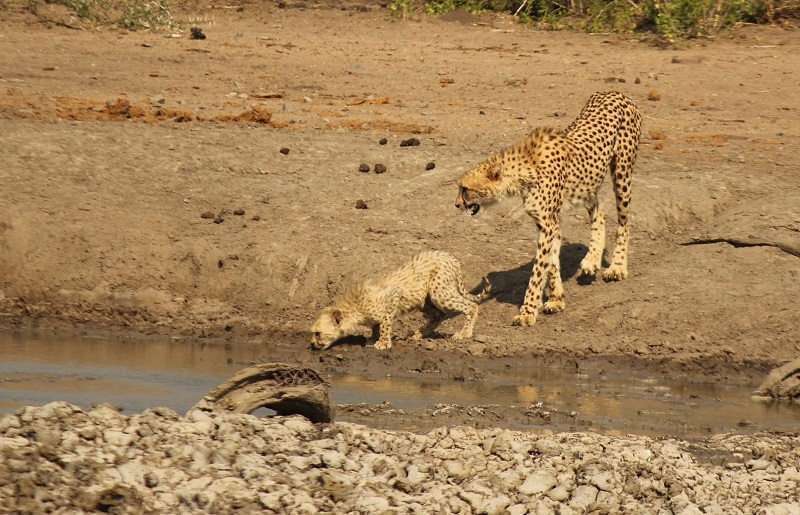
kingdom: Animalia
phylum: Chordata
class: Mammalia
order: Carnivora
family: Felidae
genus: Acinonyx
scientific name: Acinonyx jubatus
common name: Cheetah
